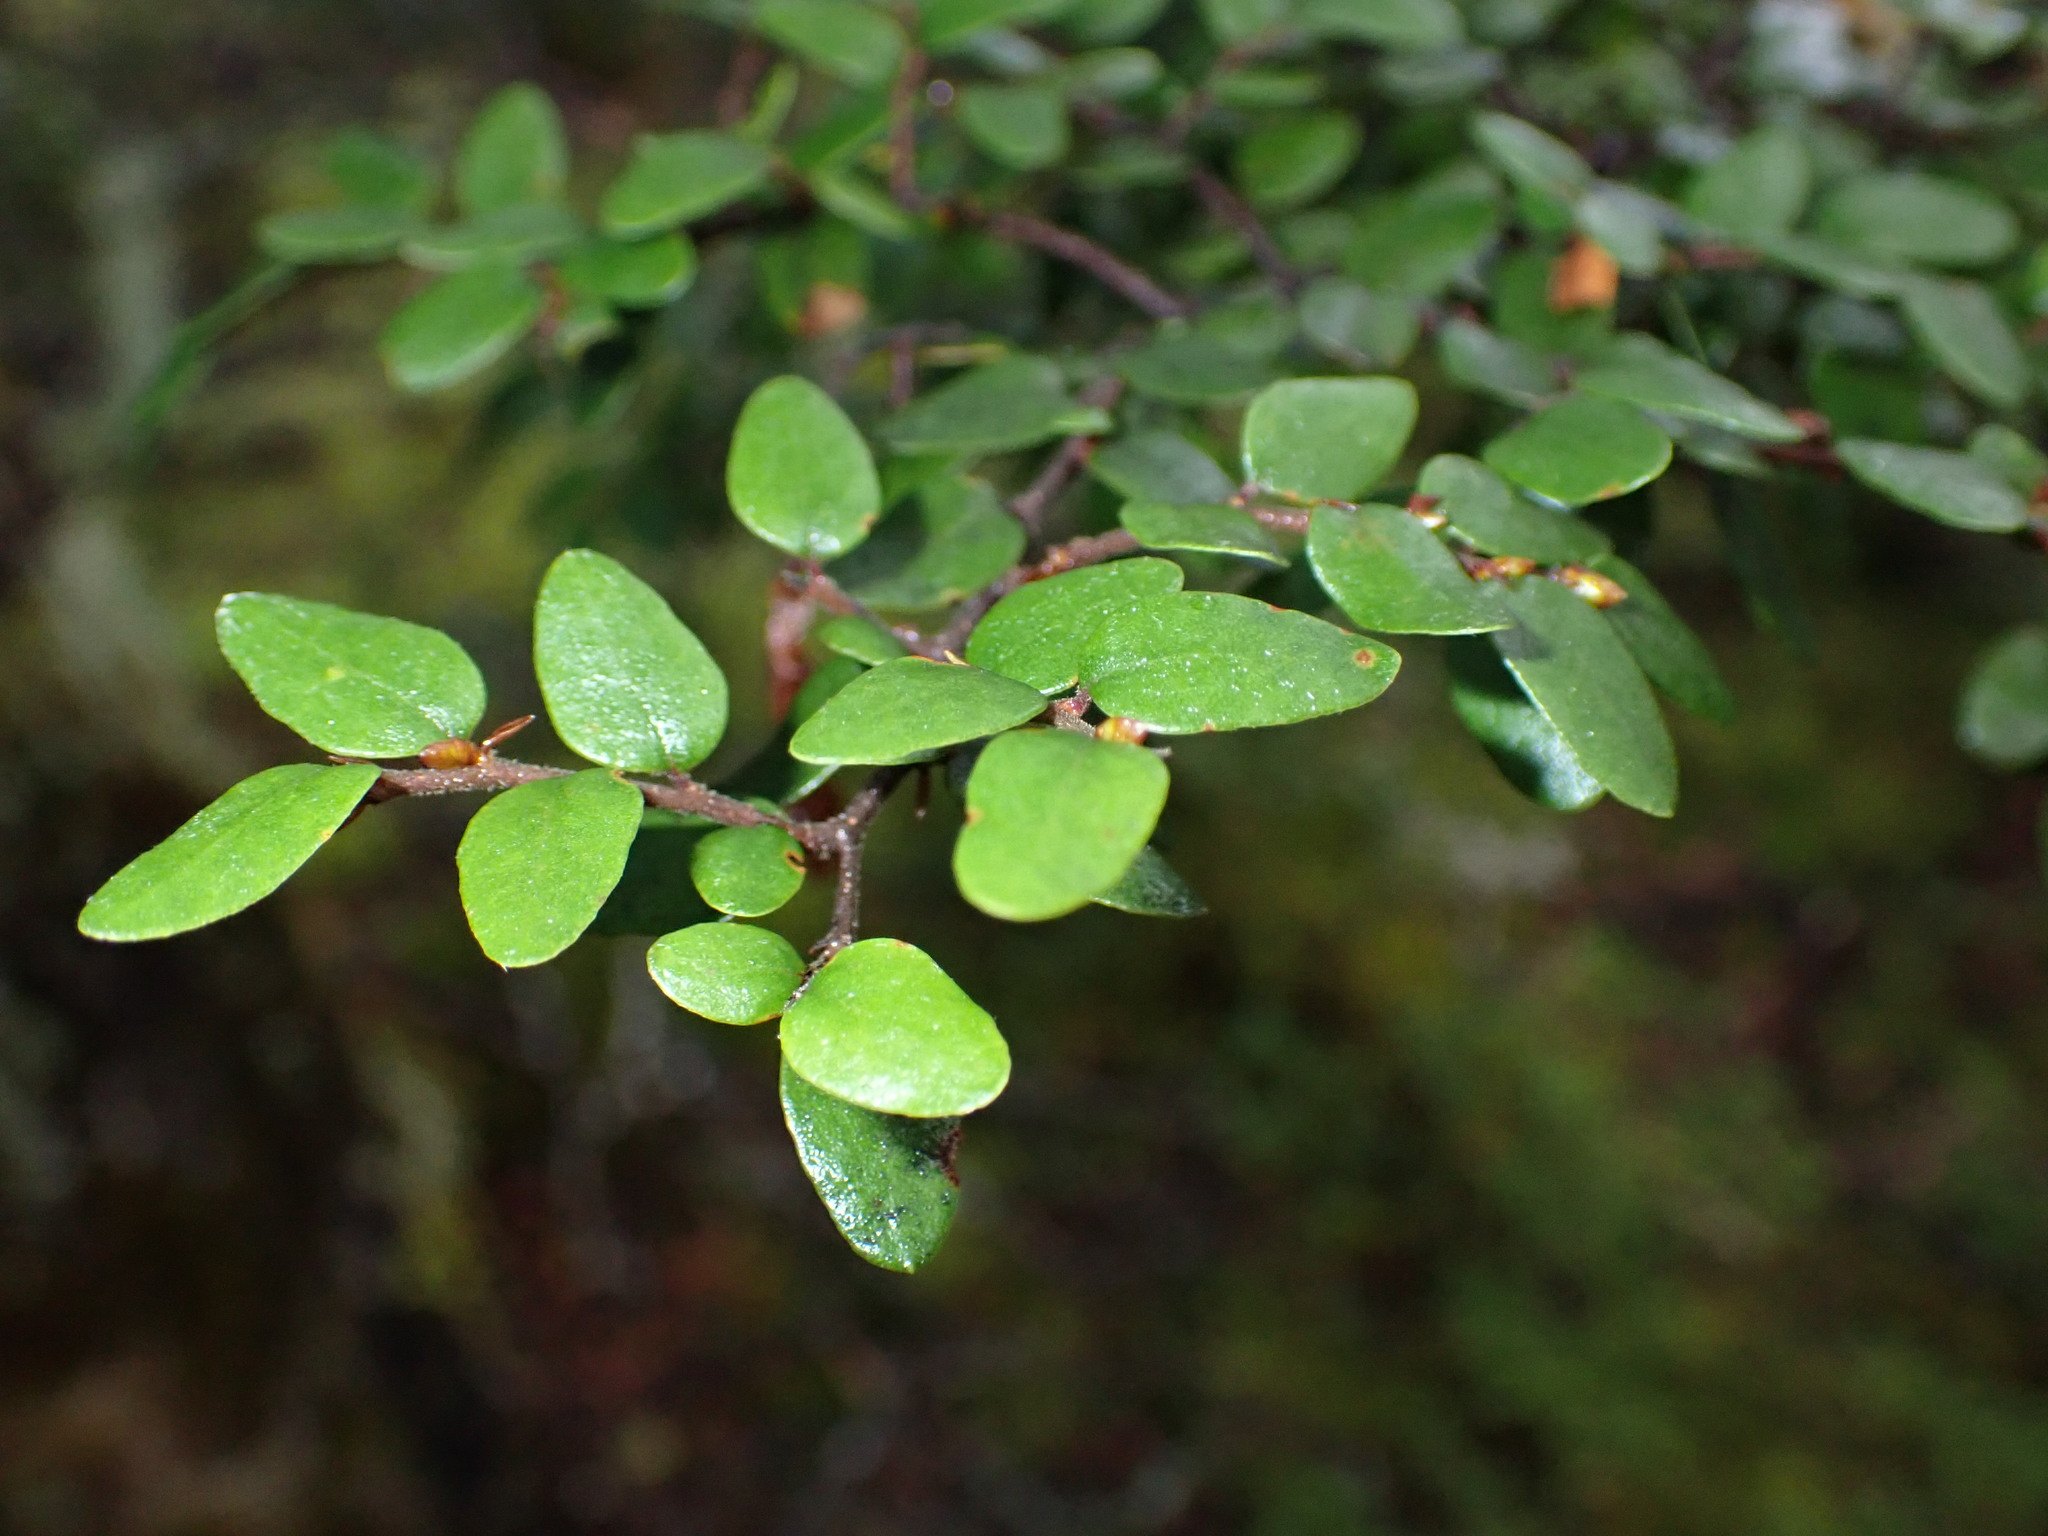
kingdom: Plantae
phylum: Tracheophyta
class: Magnoliopsida
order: Fagales
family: Nothofagaceae
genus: Nothofagus
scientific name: Nothofagus cliffortioides
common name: Mountain beech
